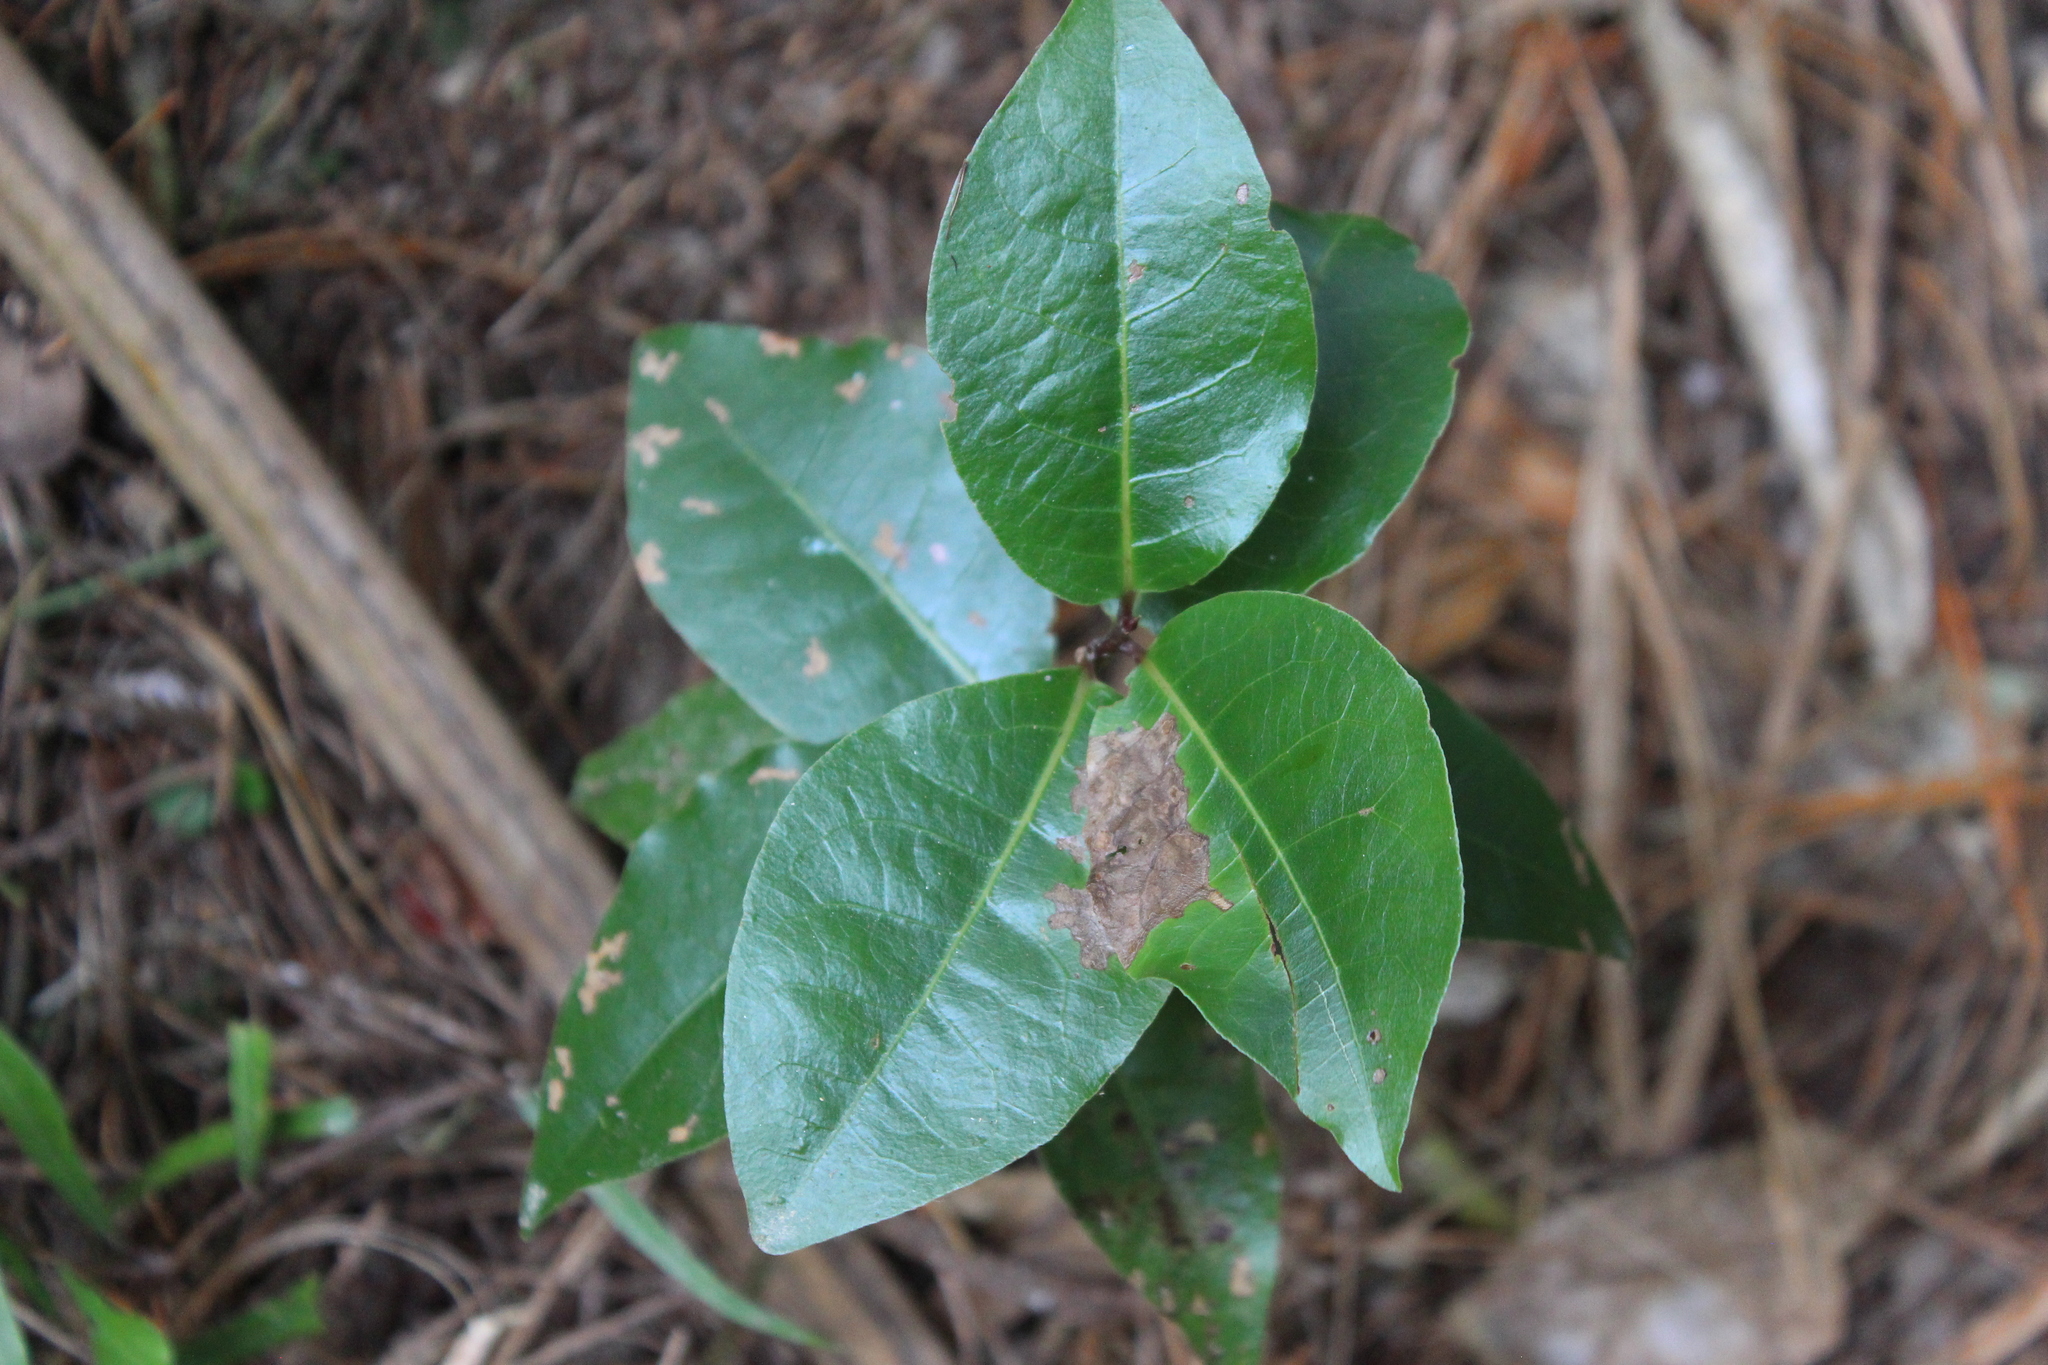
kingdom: Plantae
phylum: Tracheophyta
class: Magnoliopsida
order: Laurales
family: Lauraceae
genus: Laurus
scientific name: Laurus nobilis
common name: Bay
